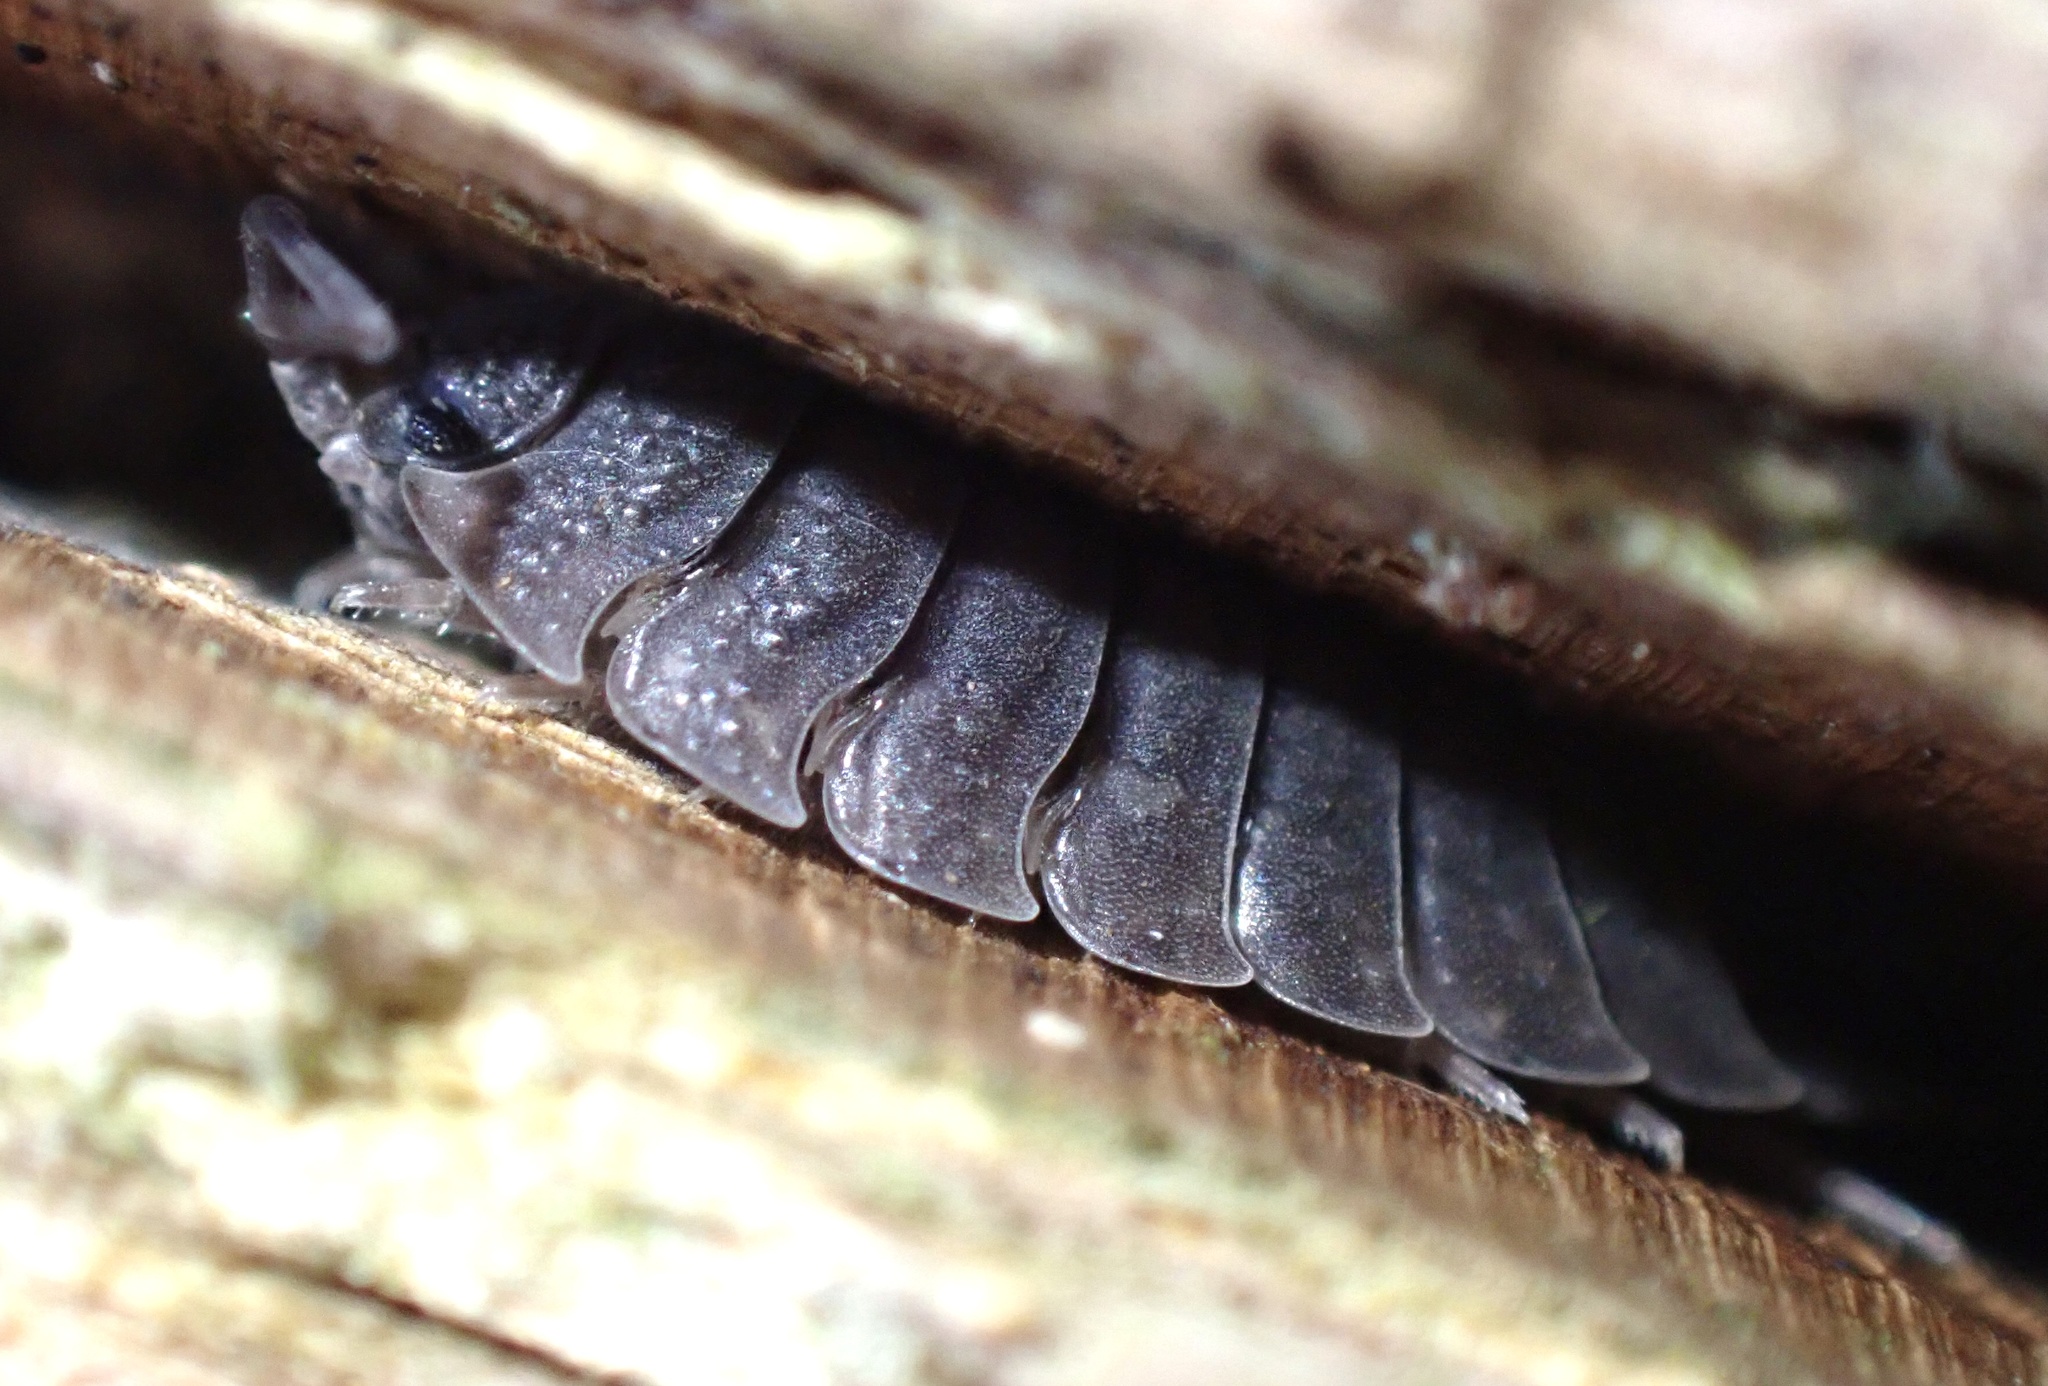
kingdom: Animalia
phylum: Arthropoda
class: Malacostraca
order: Isopoda
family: Porcellionidae
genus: Porcellio
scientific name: Porcellio scaber
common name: Common rough woodlouse
